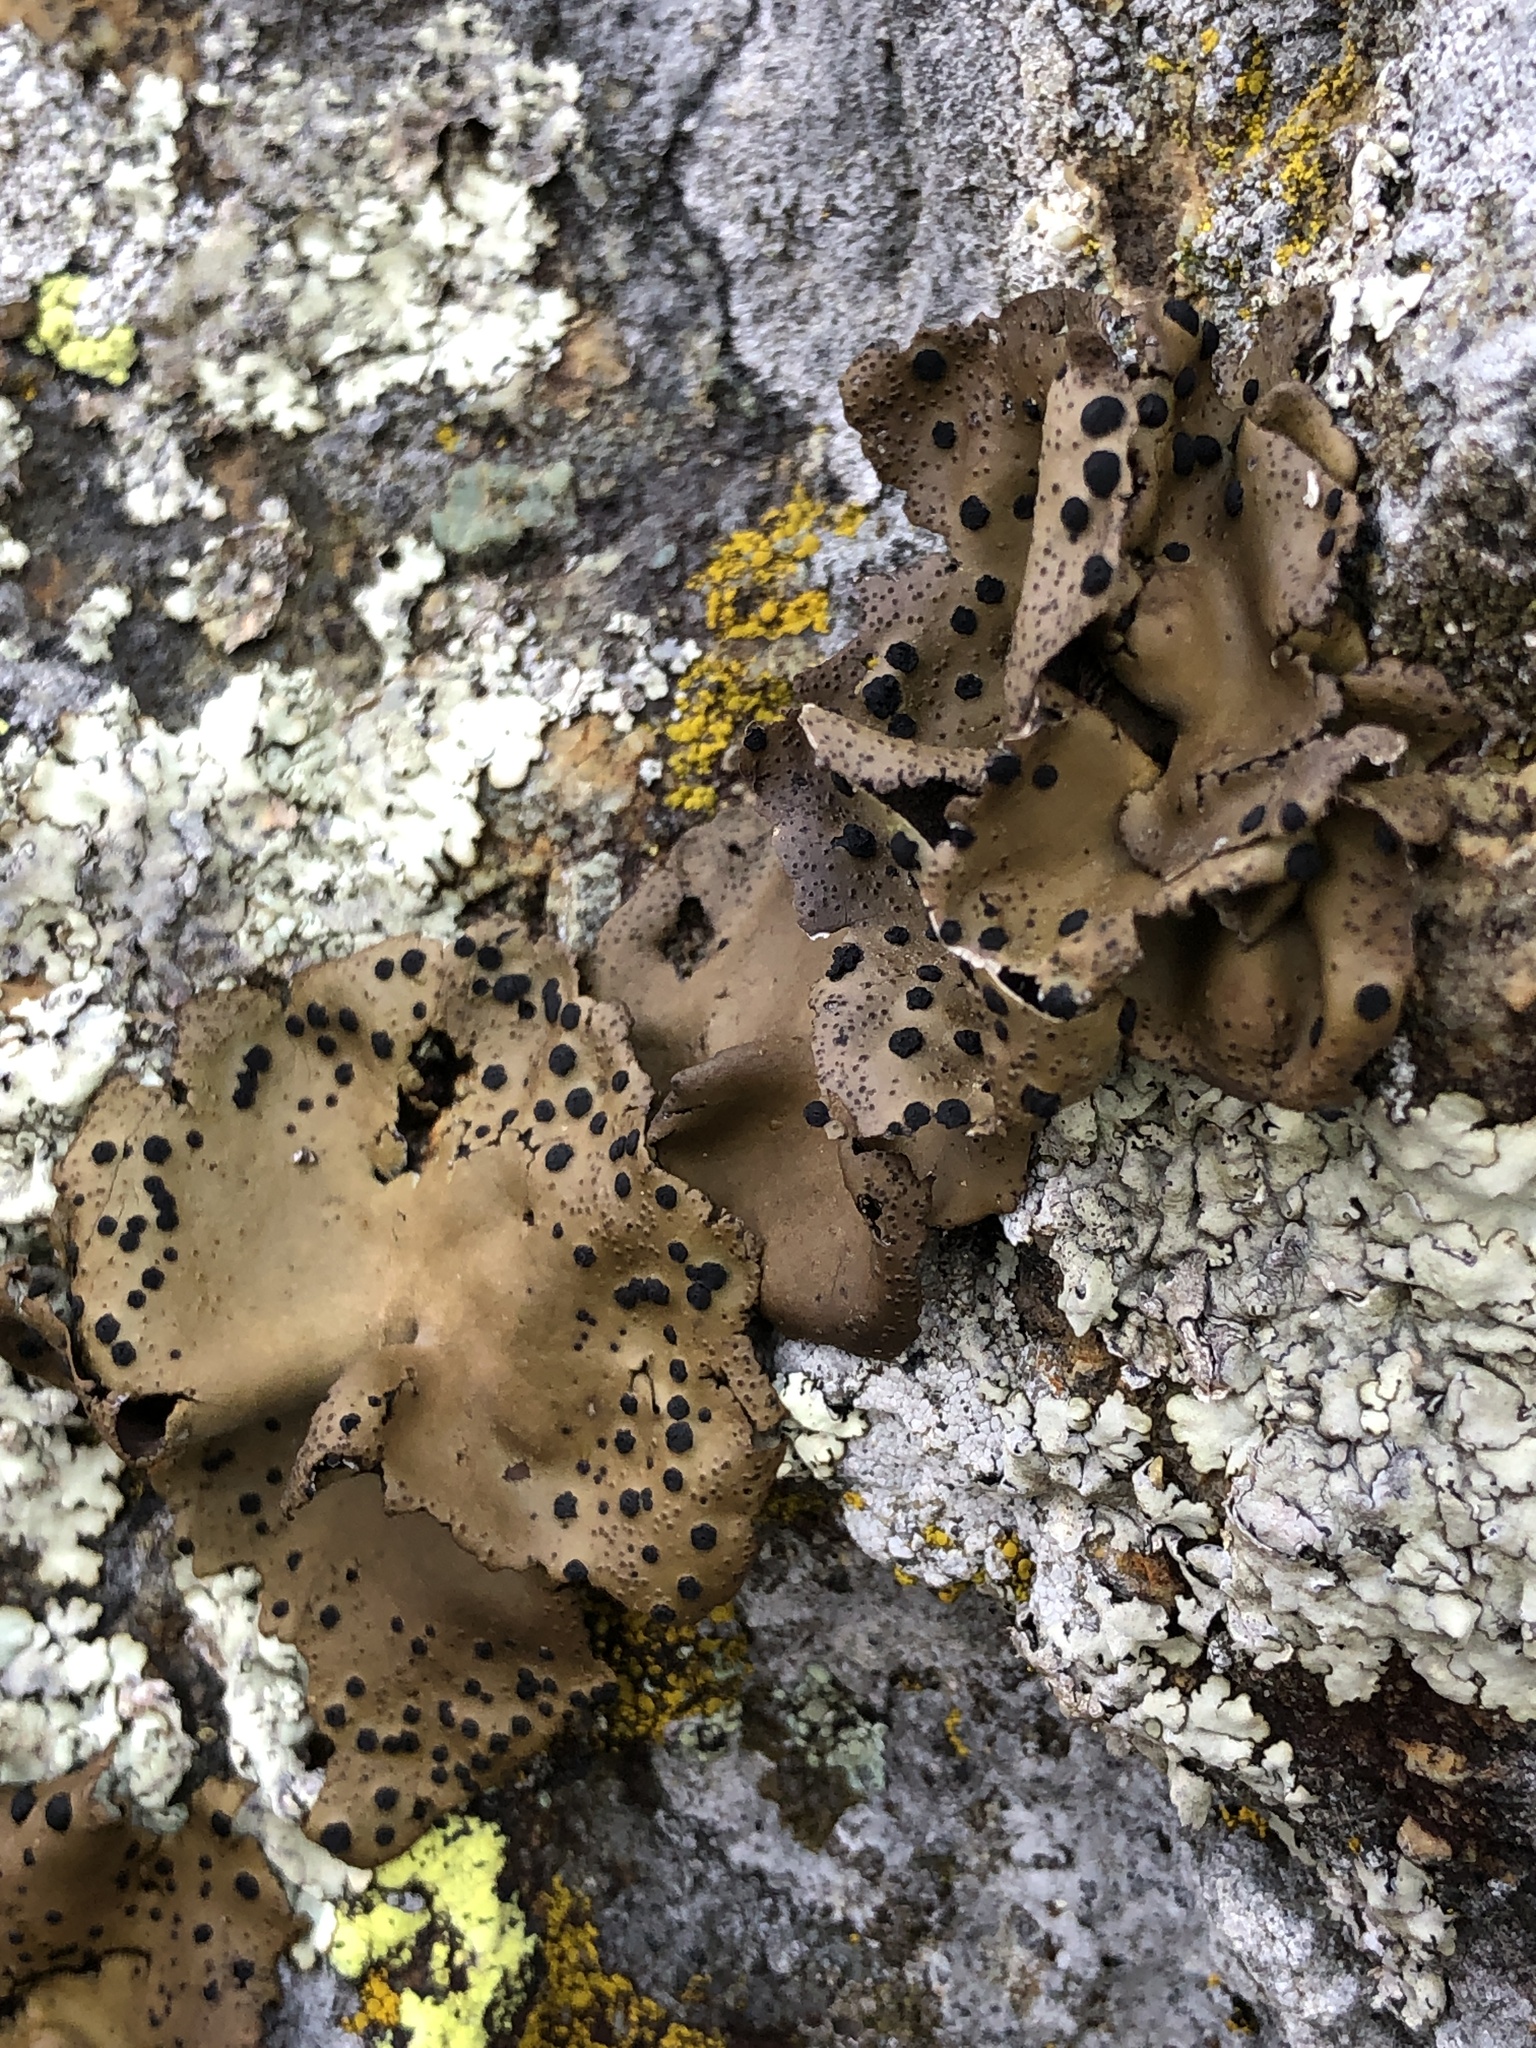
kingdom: Fungi
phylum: Ascomycota
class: Lecanoromycetes
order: Umbilicariales
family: Umbilicariaceae
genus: Umbilicaria
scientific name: Umbilicaria phaea
